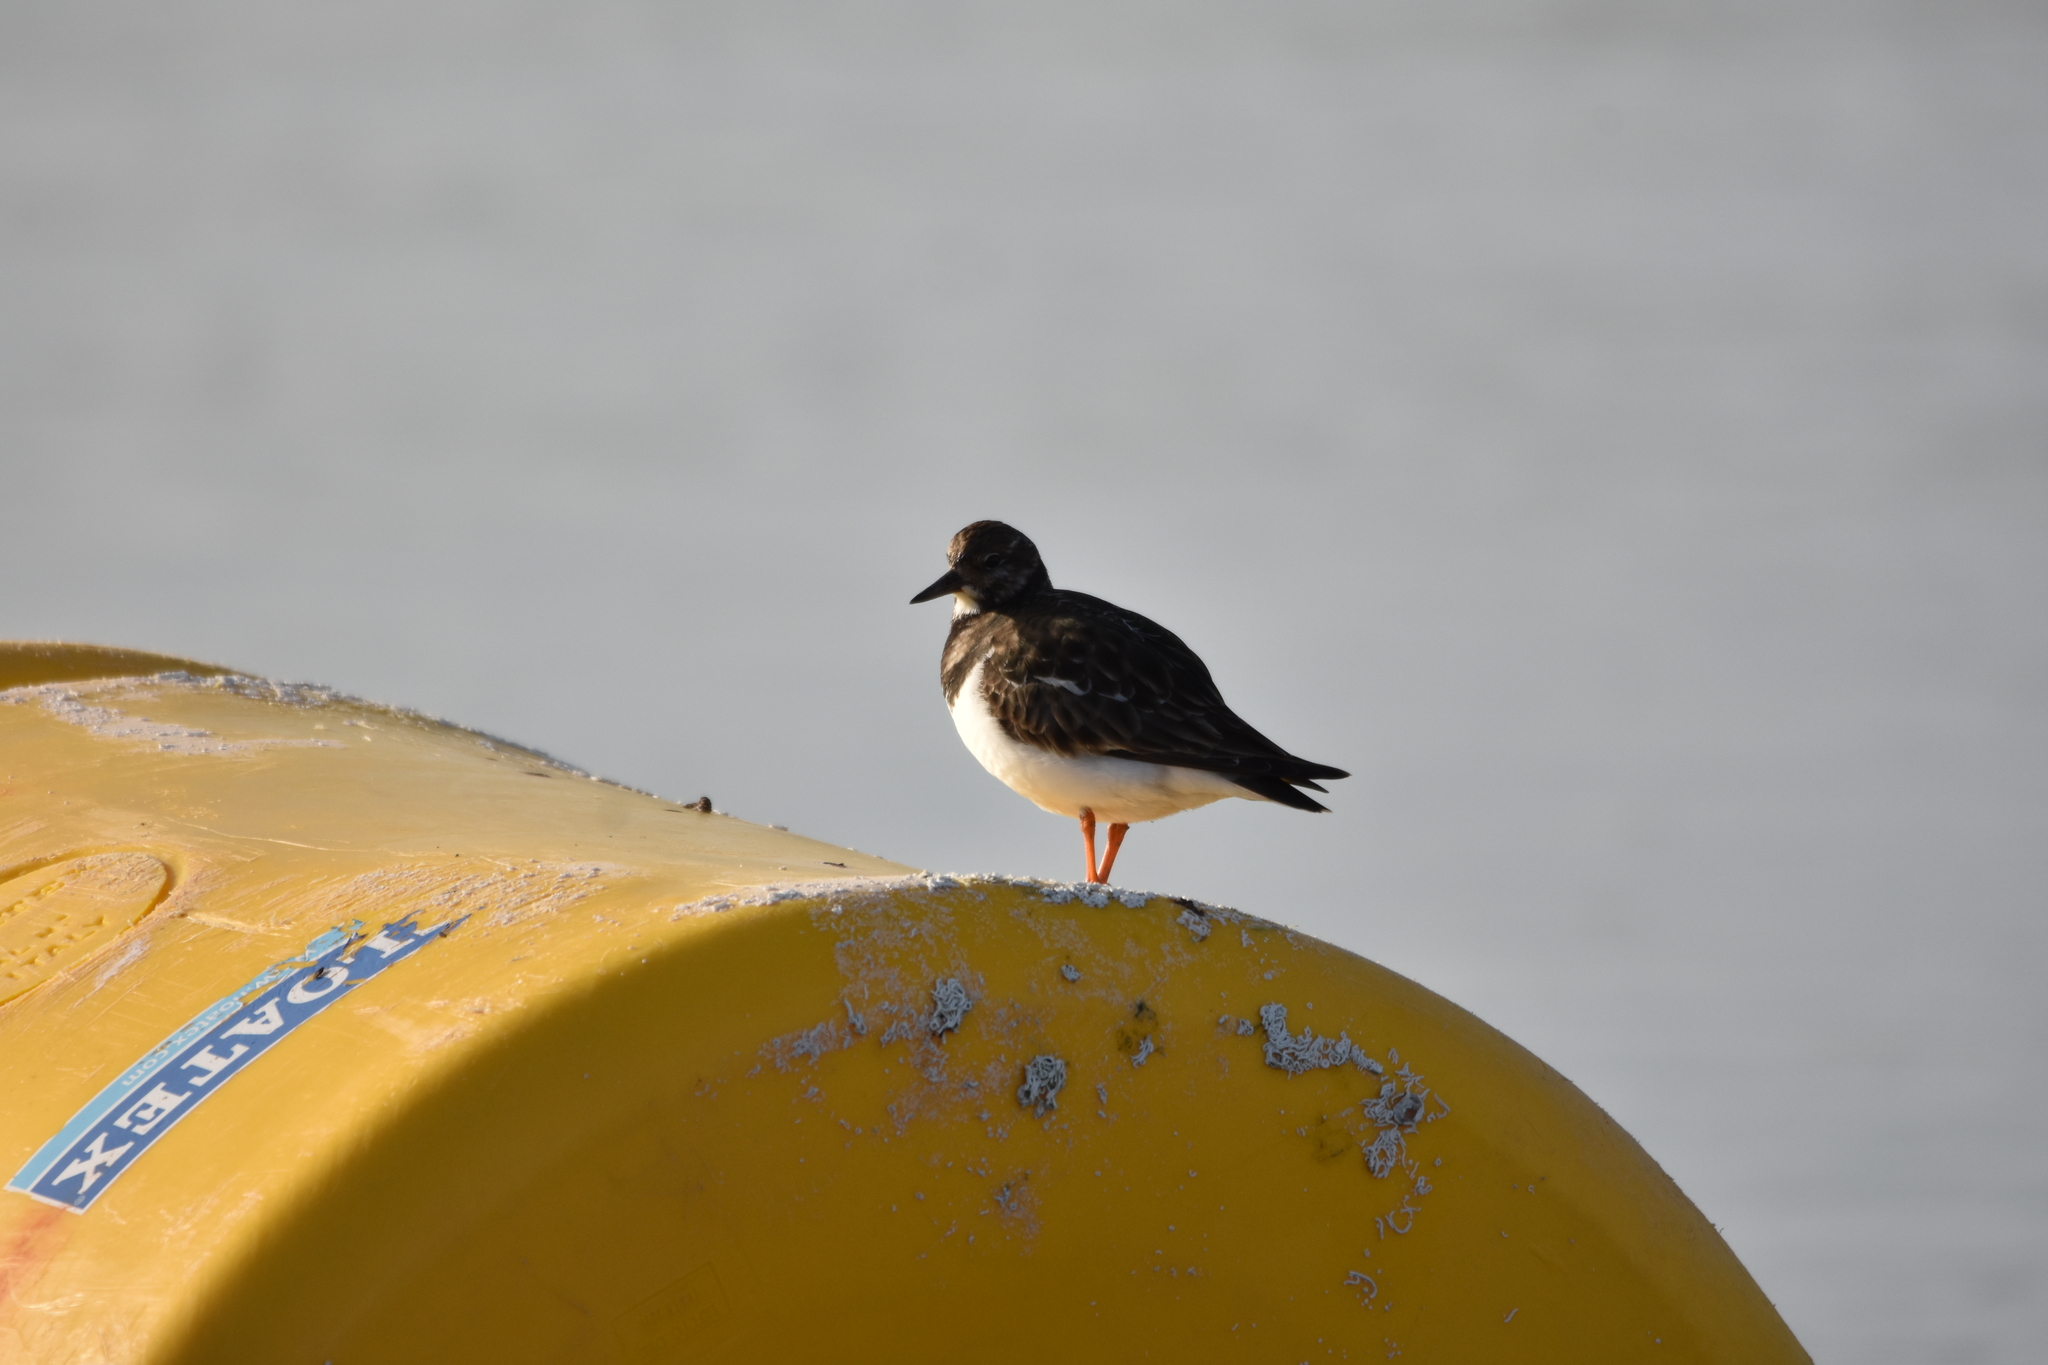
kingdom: Animalia
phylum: Chordata
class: Aves
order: Charadriiformes
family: Scolopacidae
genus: Arenaria
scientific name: Arenaria interpres
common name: Ruddy turnstone
